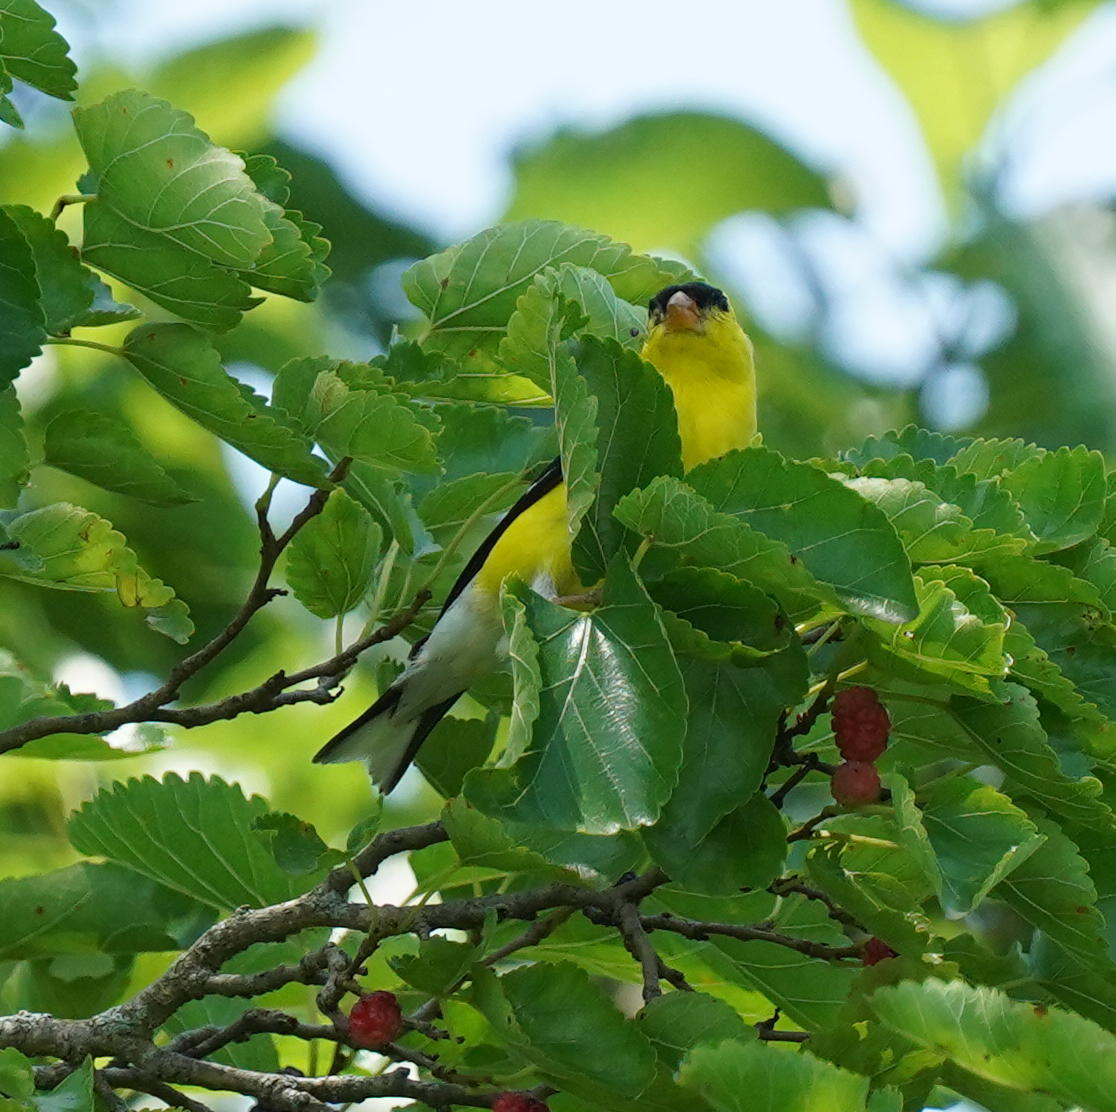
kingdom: Animalia
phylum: Chordata
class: Aves
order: Passeriformes
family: Fringillidae
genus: Spinus
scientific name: Spinus tristis
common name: American goldfinch
